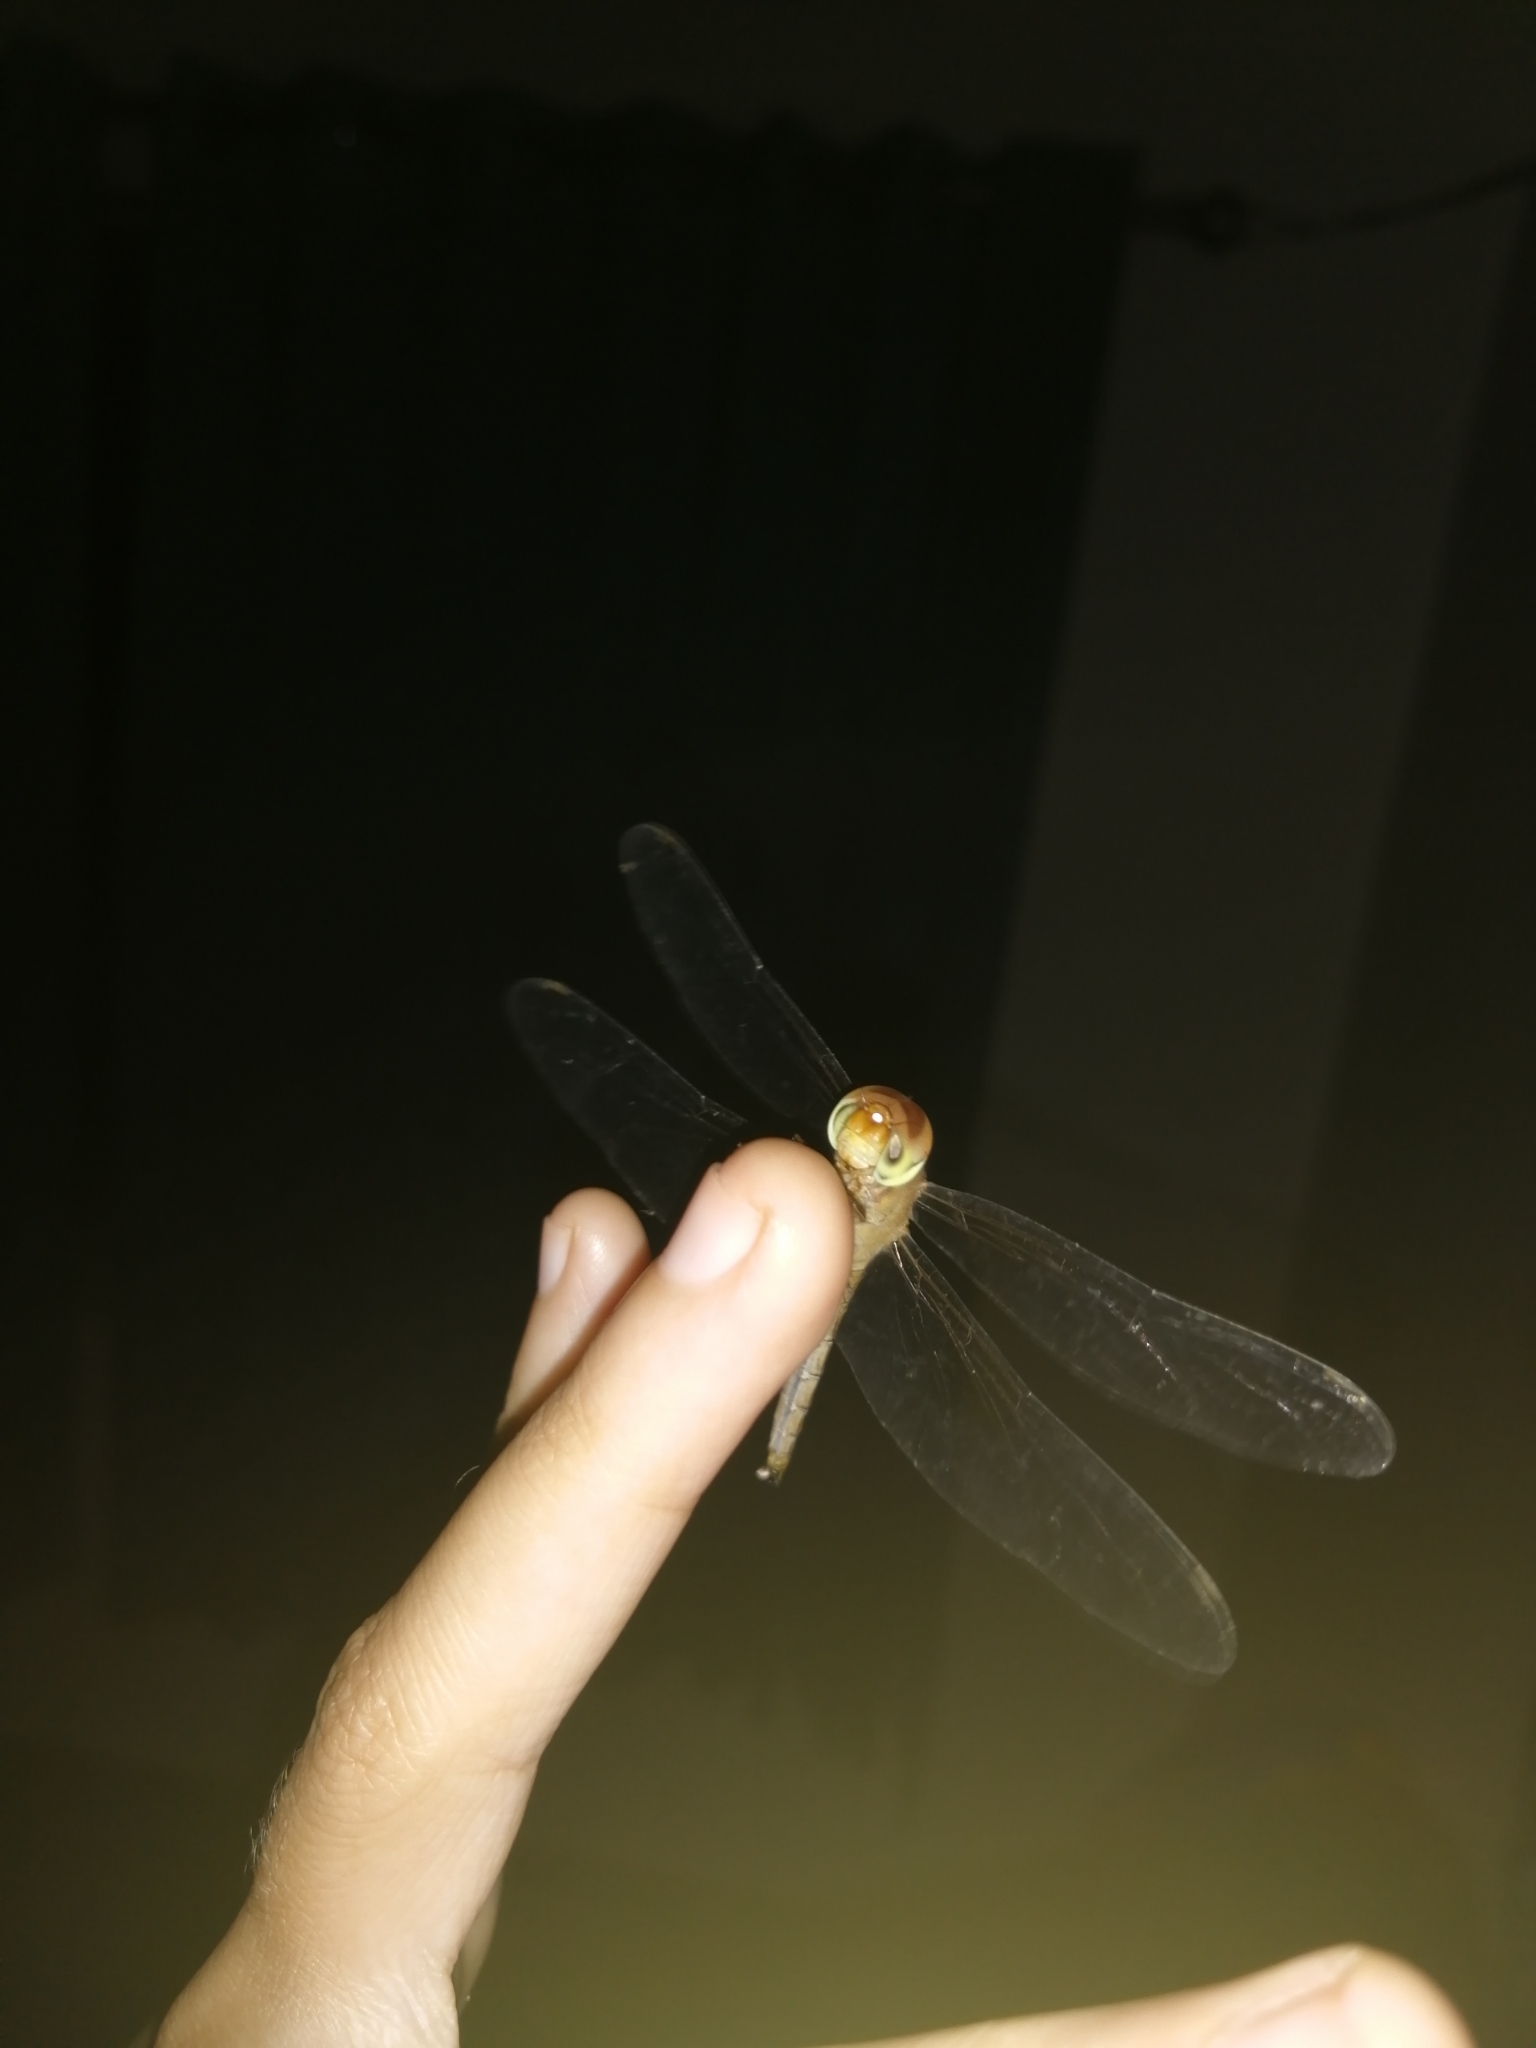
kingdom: Animalia
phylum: Arthropoda
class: Insecta
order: Odonata
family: Libellulidae
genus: Tholymis
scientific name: Tholymis tillarga
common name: Coral-tailed cloud wing
